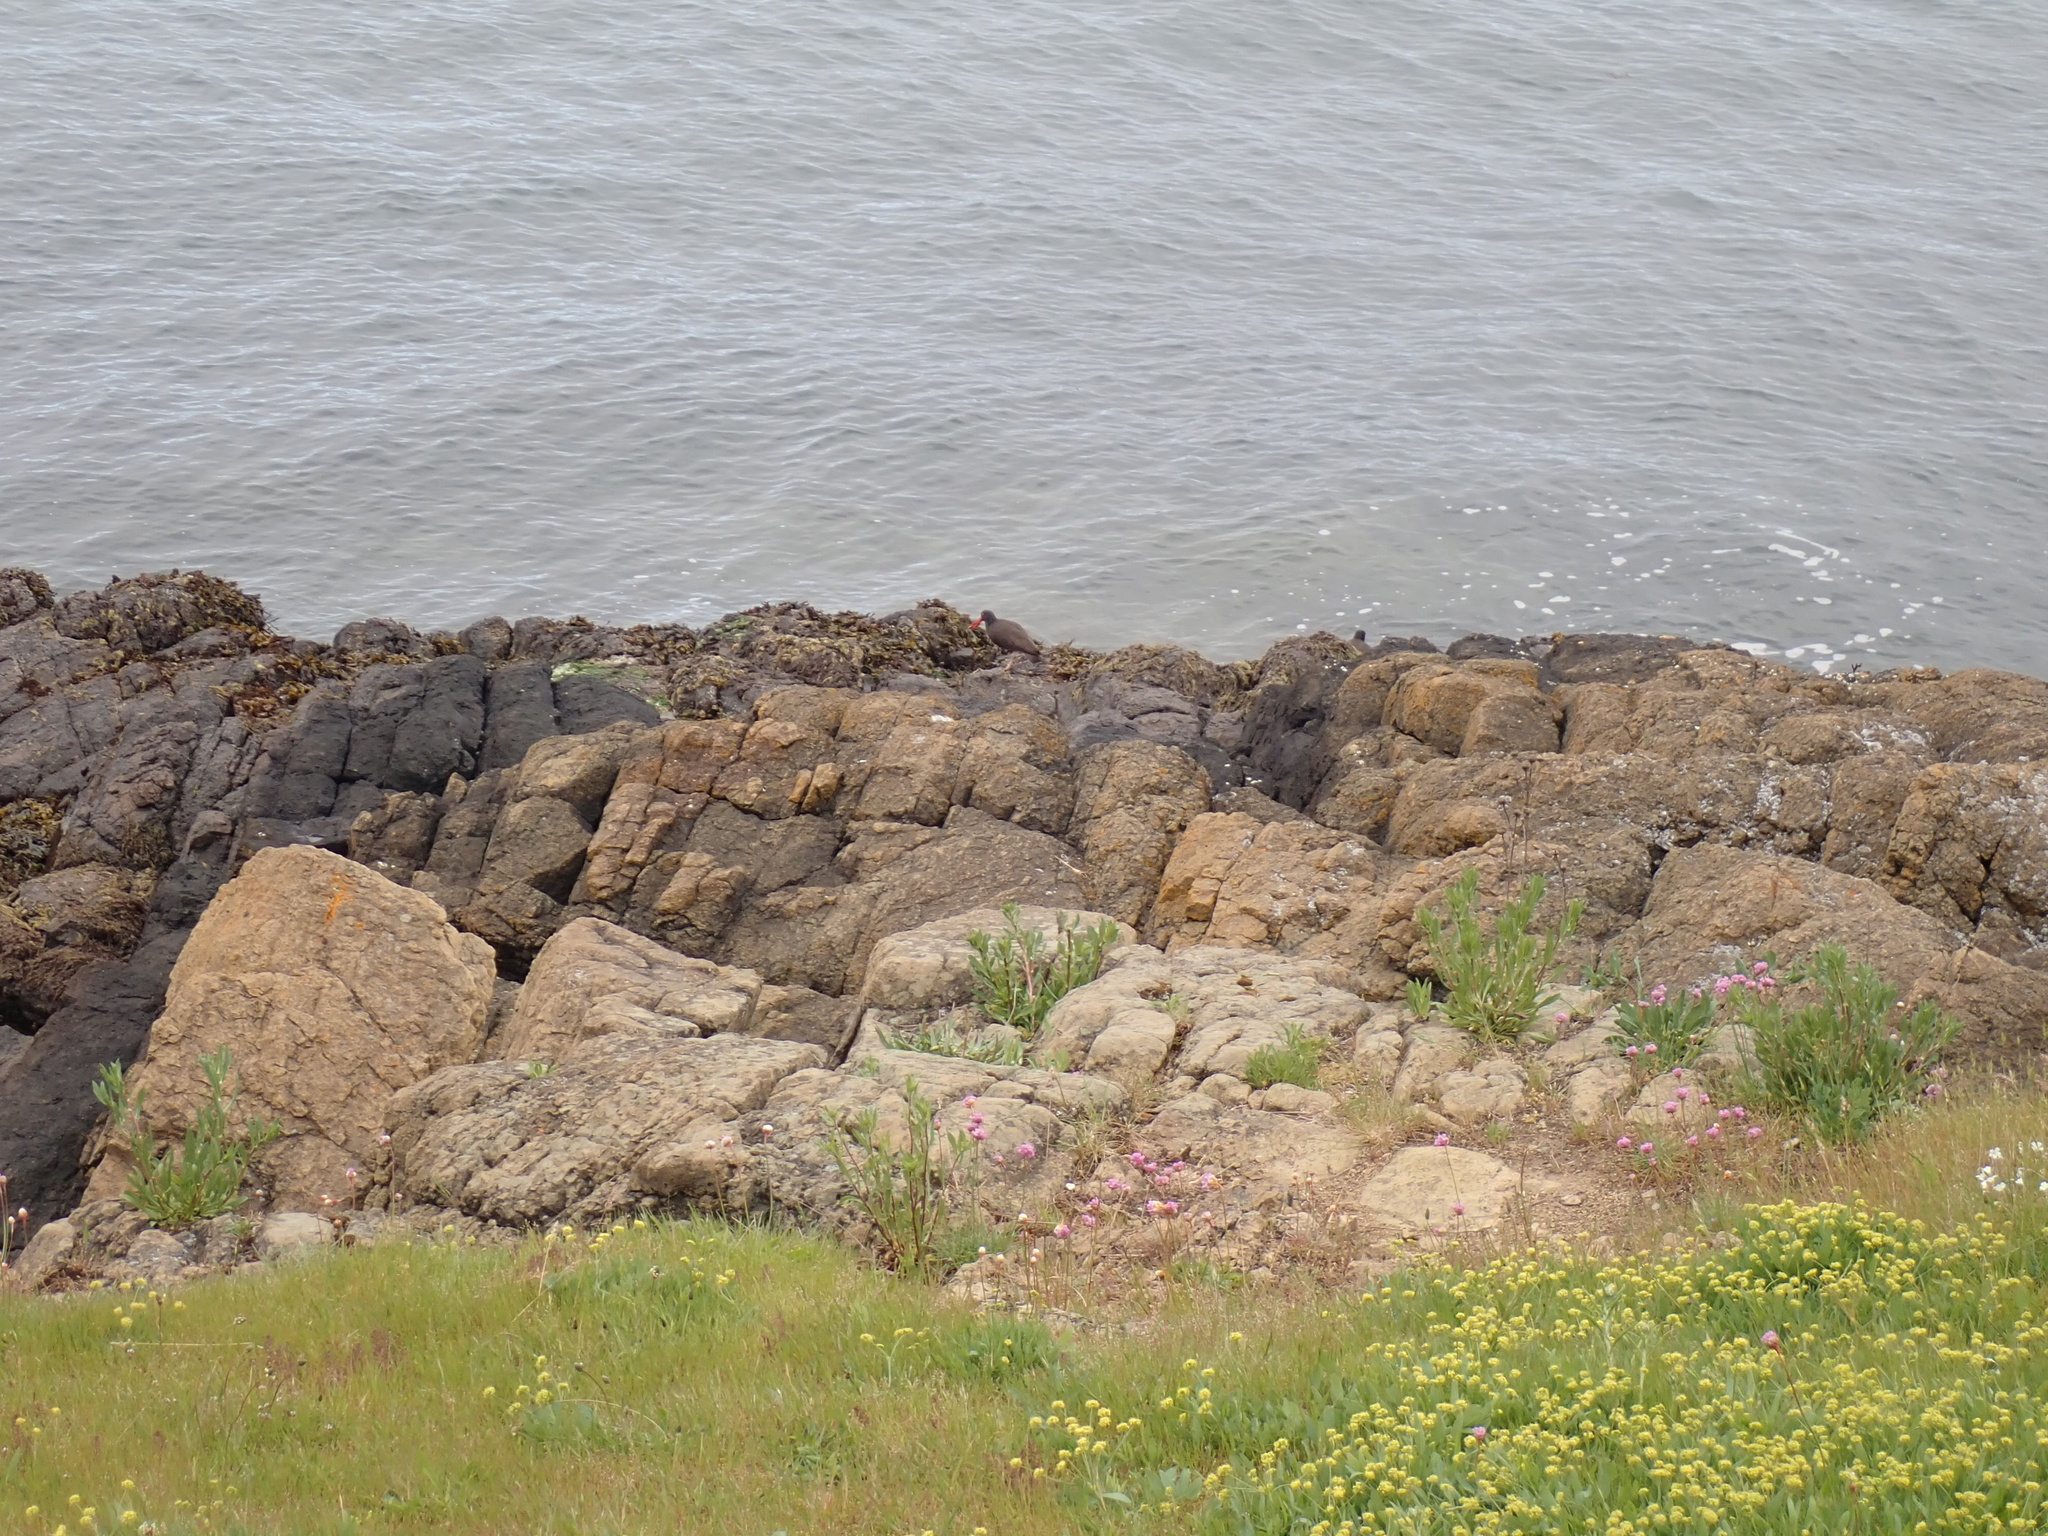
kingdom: Animalia
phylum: Chordata
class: Aves
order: Charadriiformes
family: Haematopodidae
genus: Haematopus
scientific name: Haematopus bachmani
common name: Black oystercatcher
